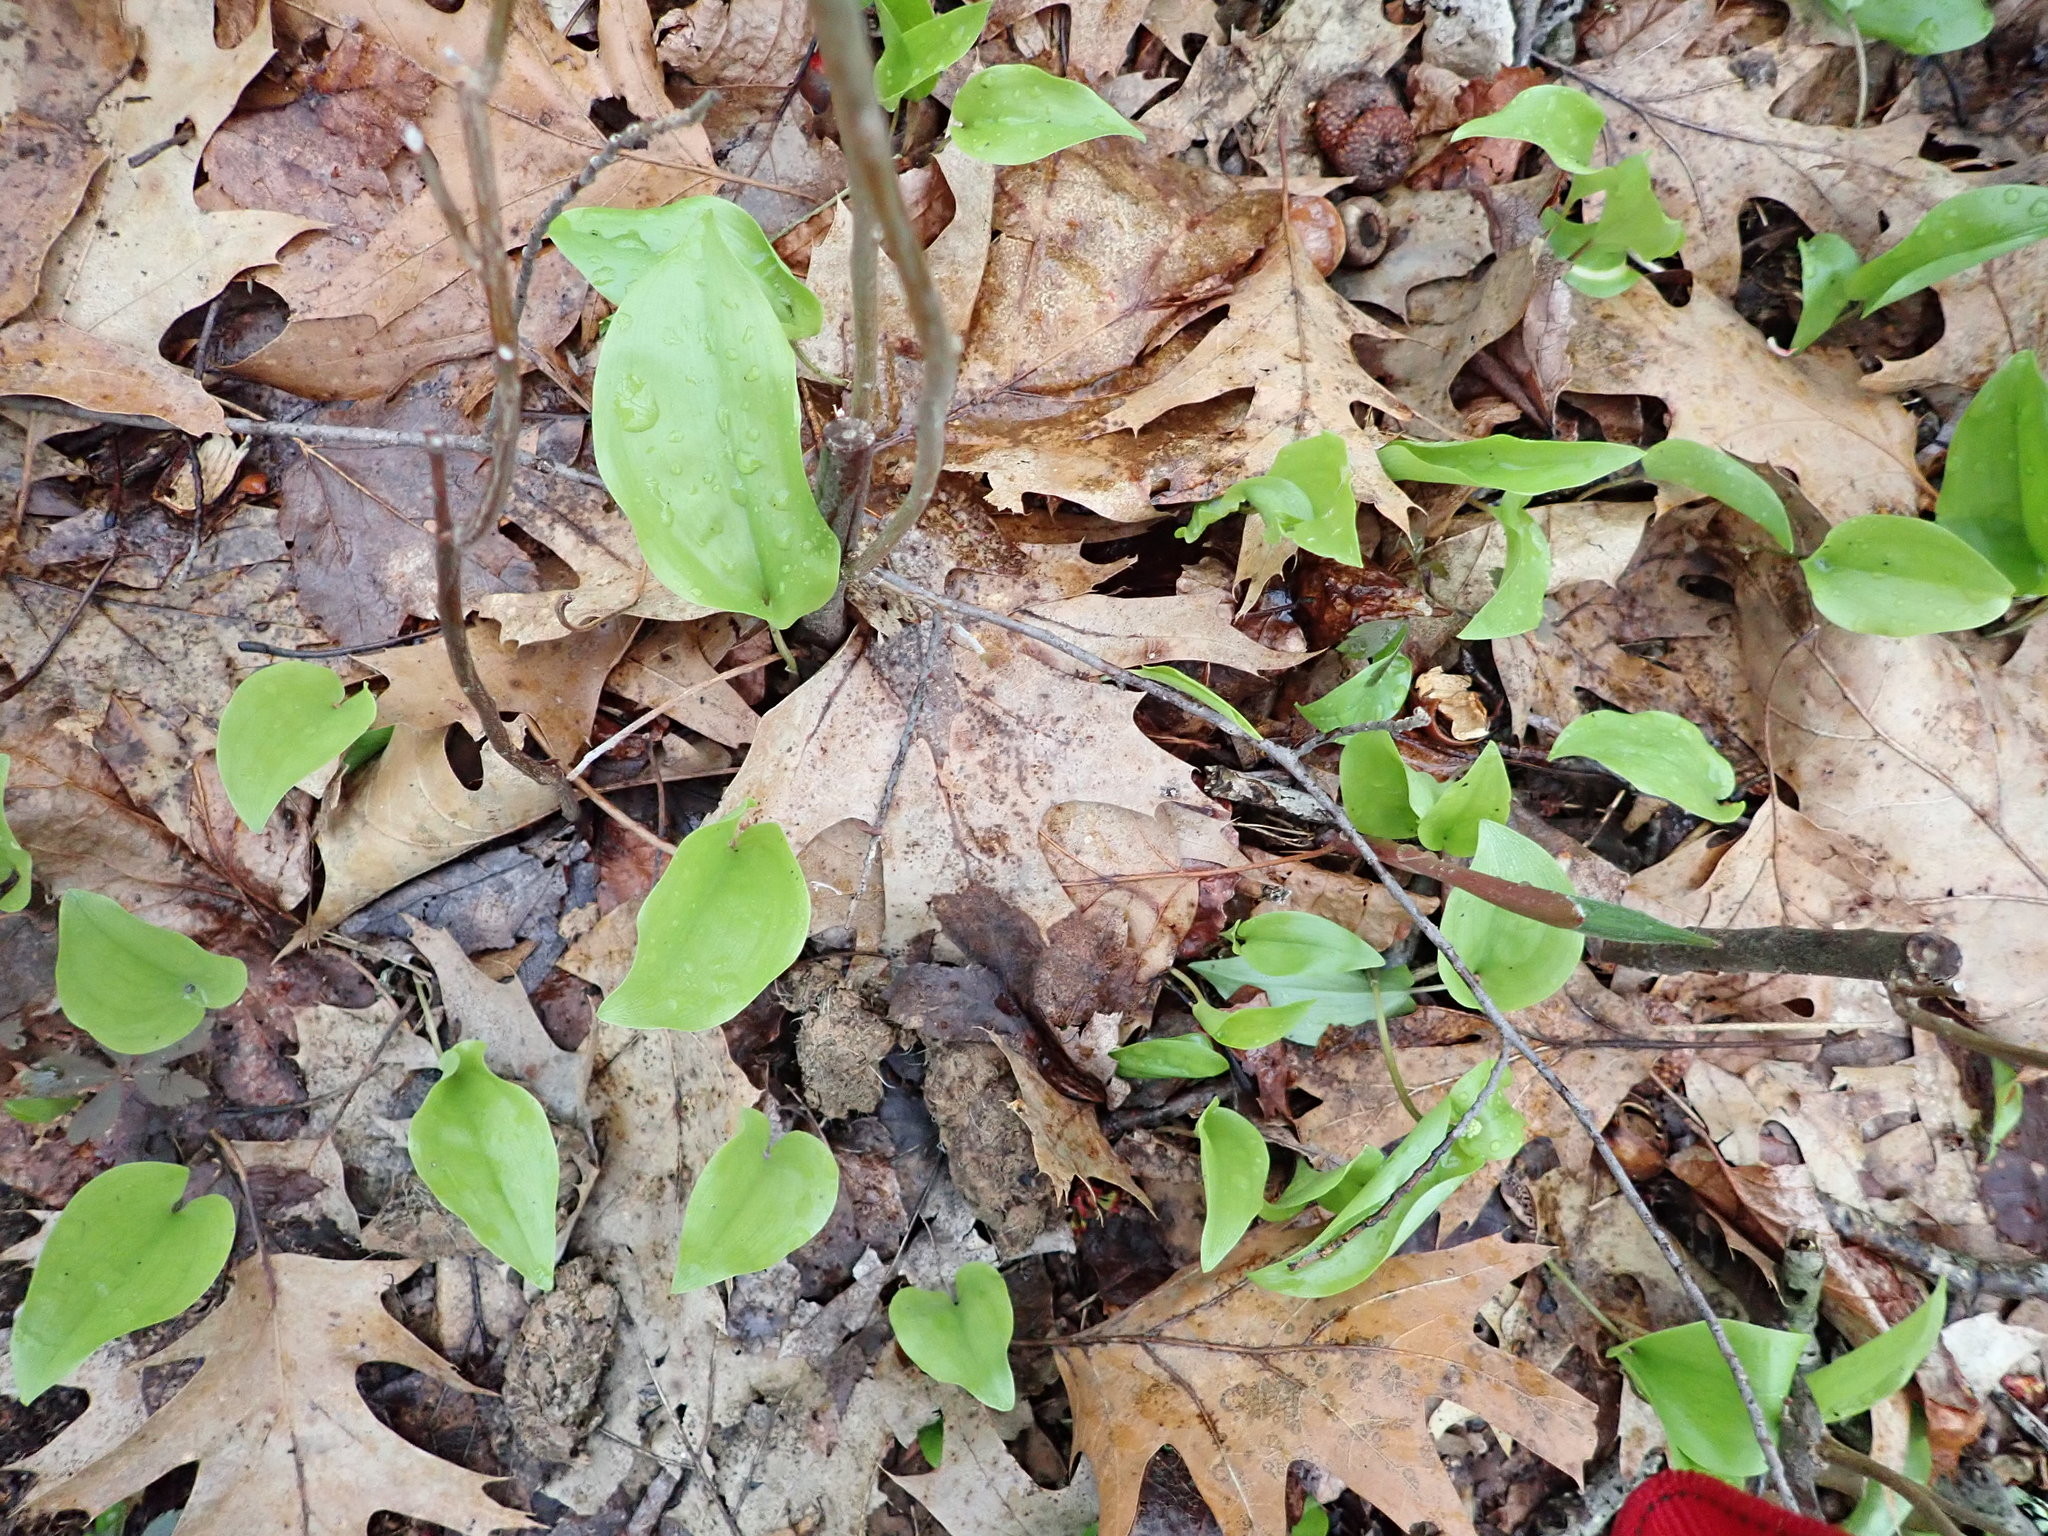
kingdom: Plantae
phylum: Tracheophyta
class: Liliopsida
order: Asparagales
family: Asparagaceae
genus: Maianthemum
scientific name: Maianthemum canadense
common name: False lily-of-the-valley
